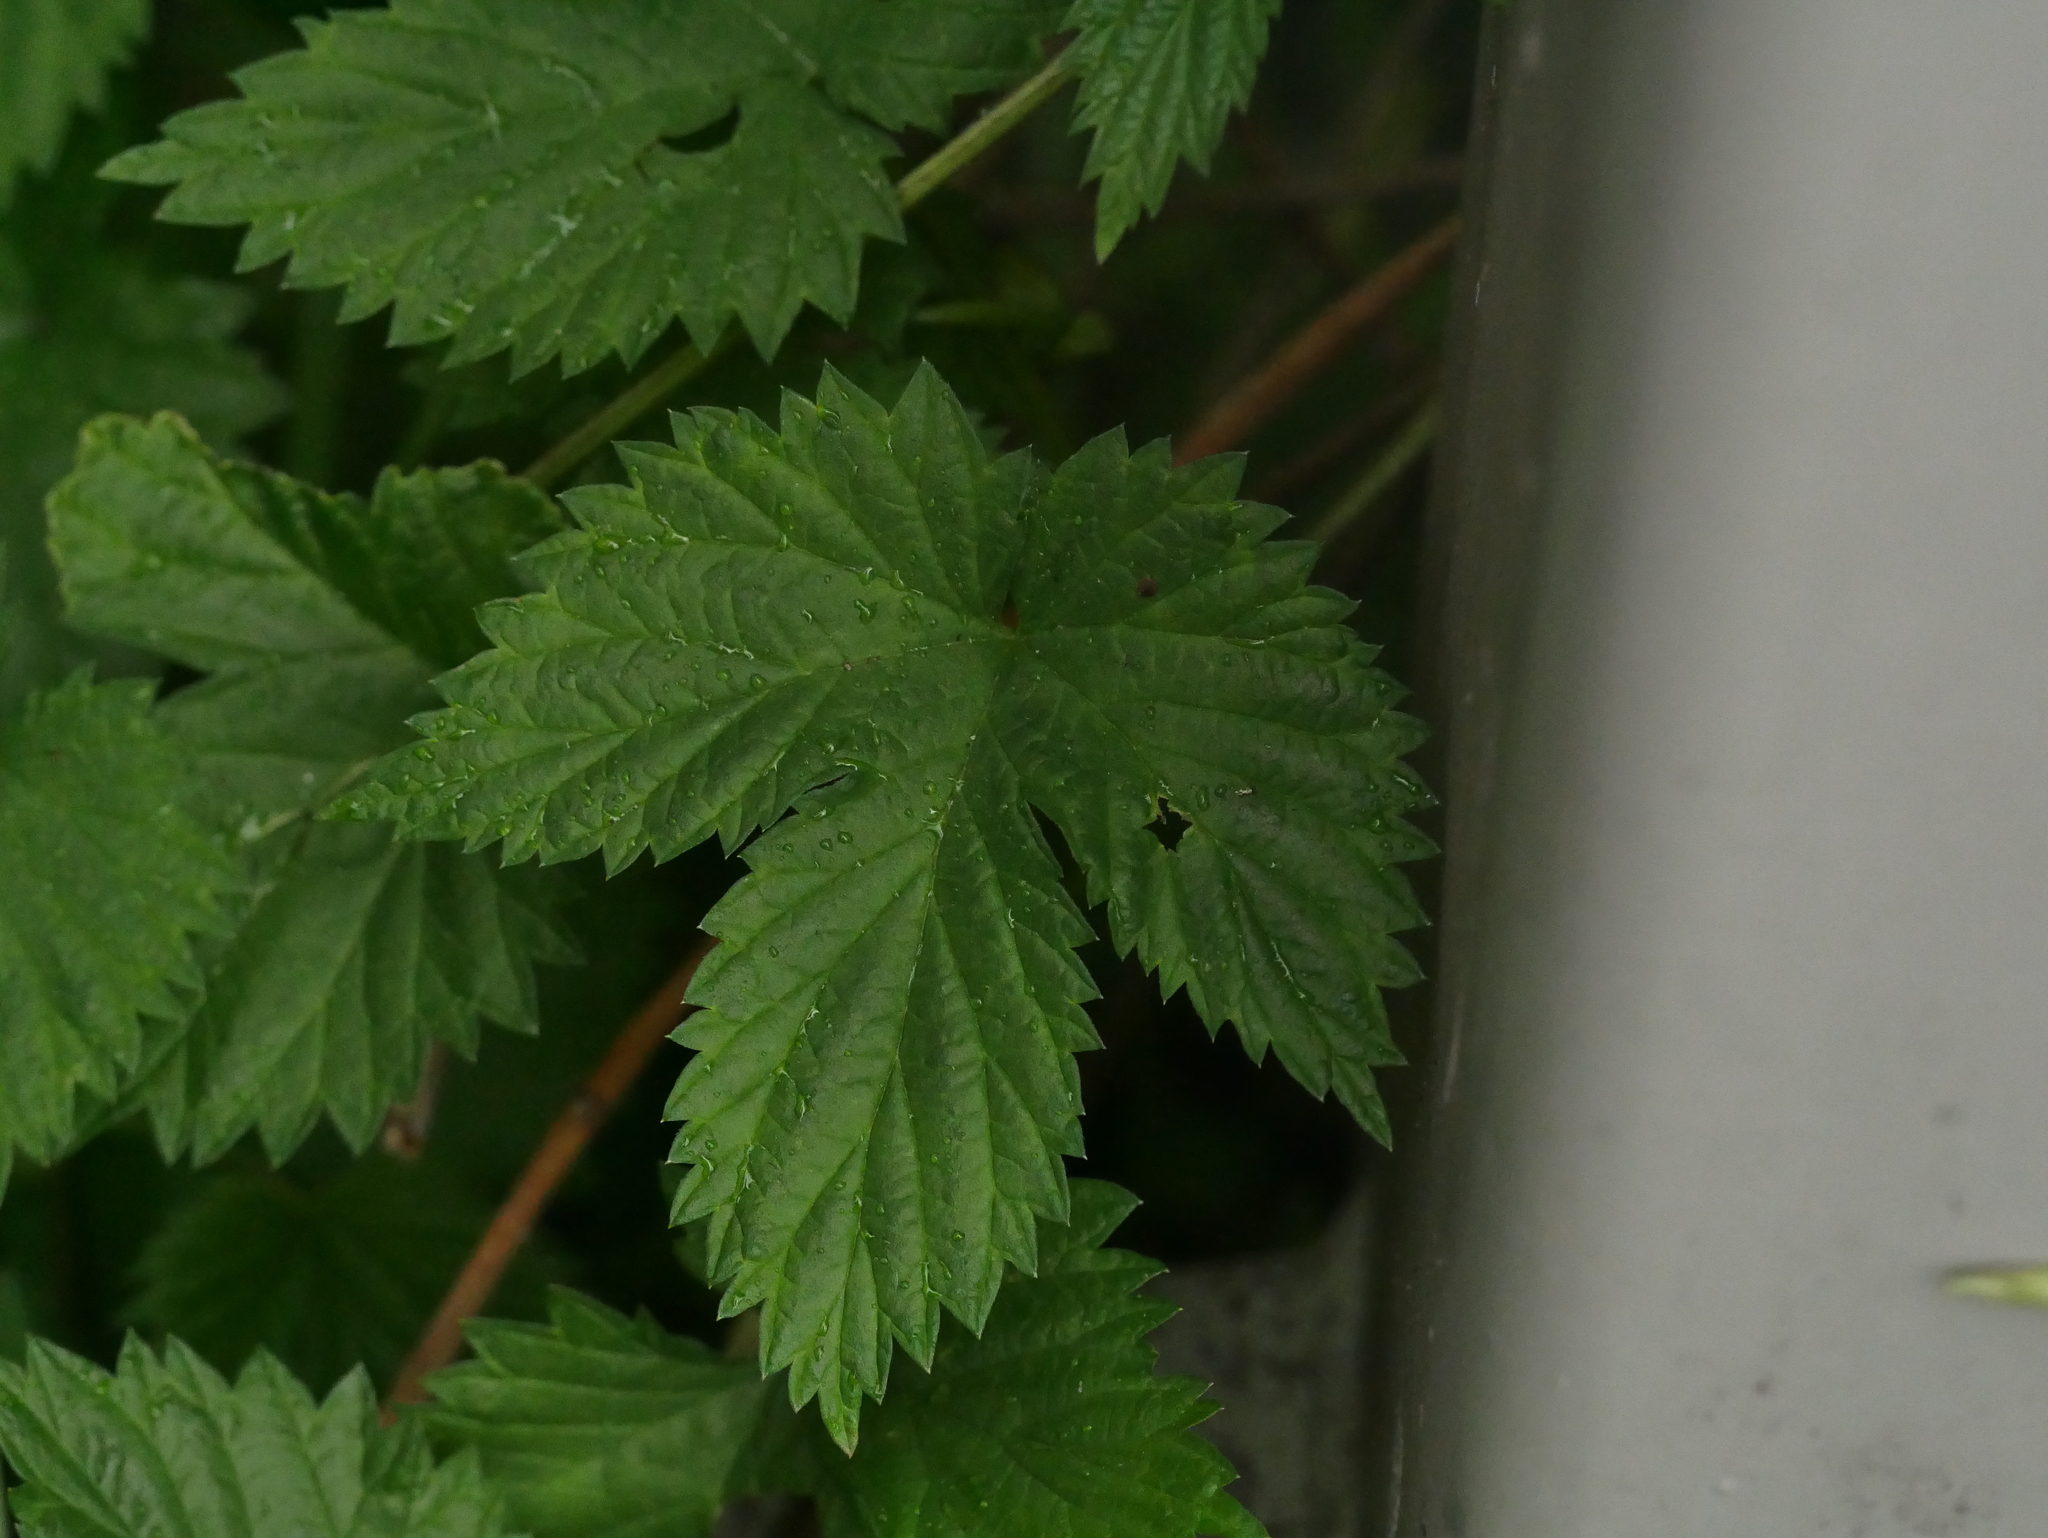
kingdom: Plantae
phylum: Tracheophyta
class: Magnoliopsida
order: Rosales
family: Cannabaceae
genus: Humulus
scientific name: Humulus lupulus
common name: Hop
